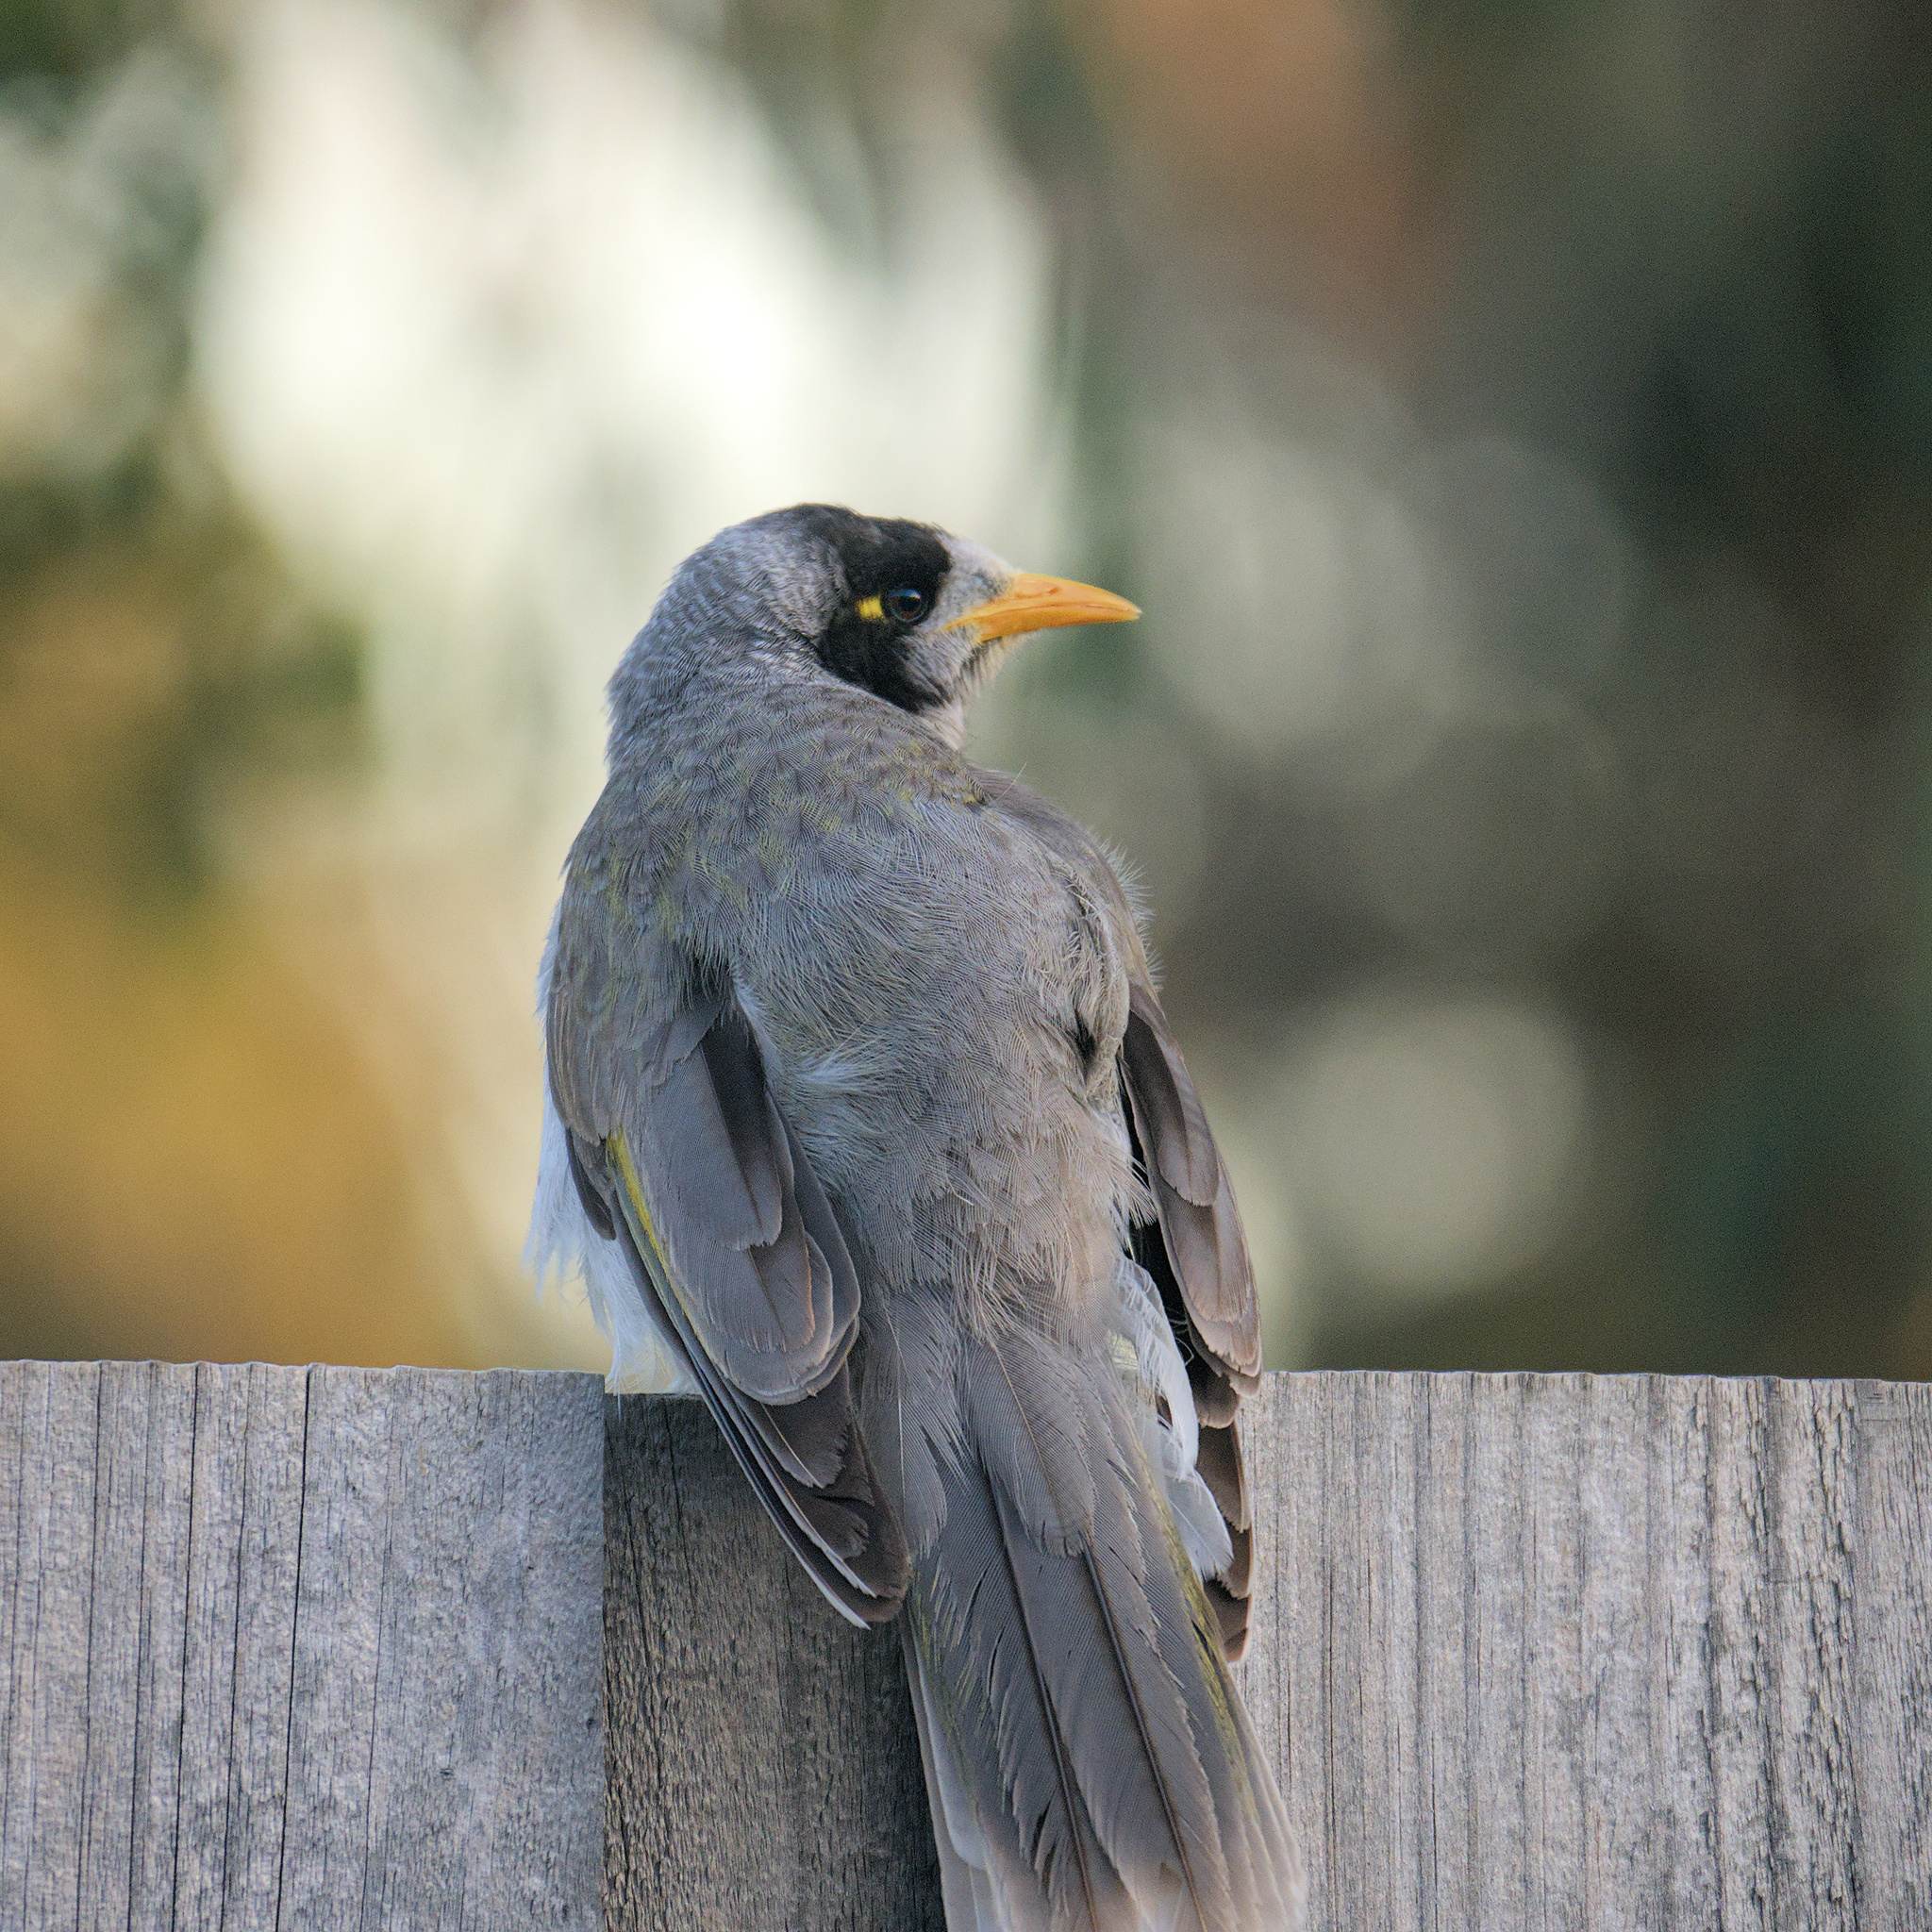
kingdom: Animalia
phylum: Chordata
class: Aves
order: Passeriformes
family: Meliphagidae
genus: Manorina
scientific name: Manorina melanocephala
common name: Noisy miner
